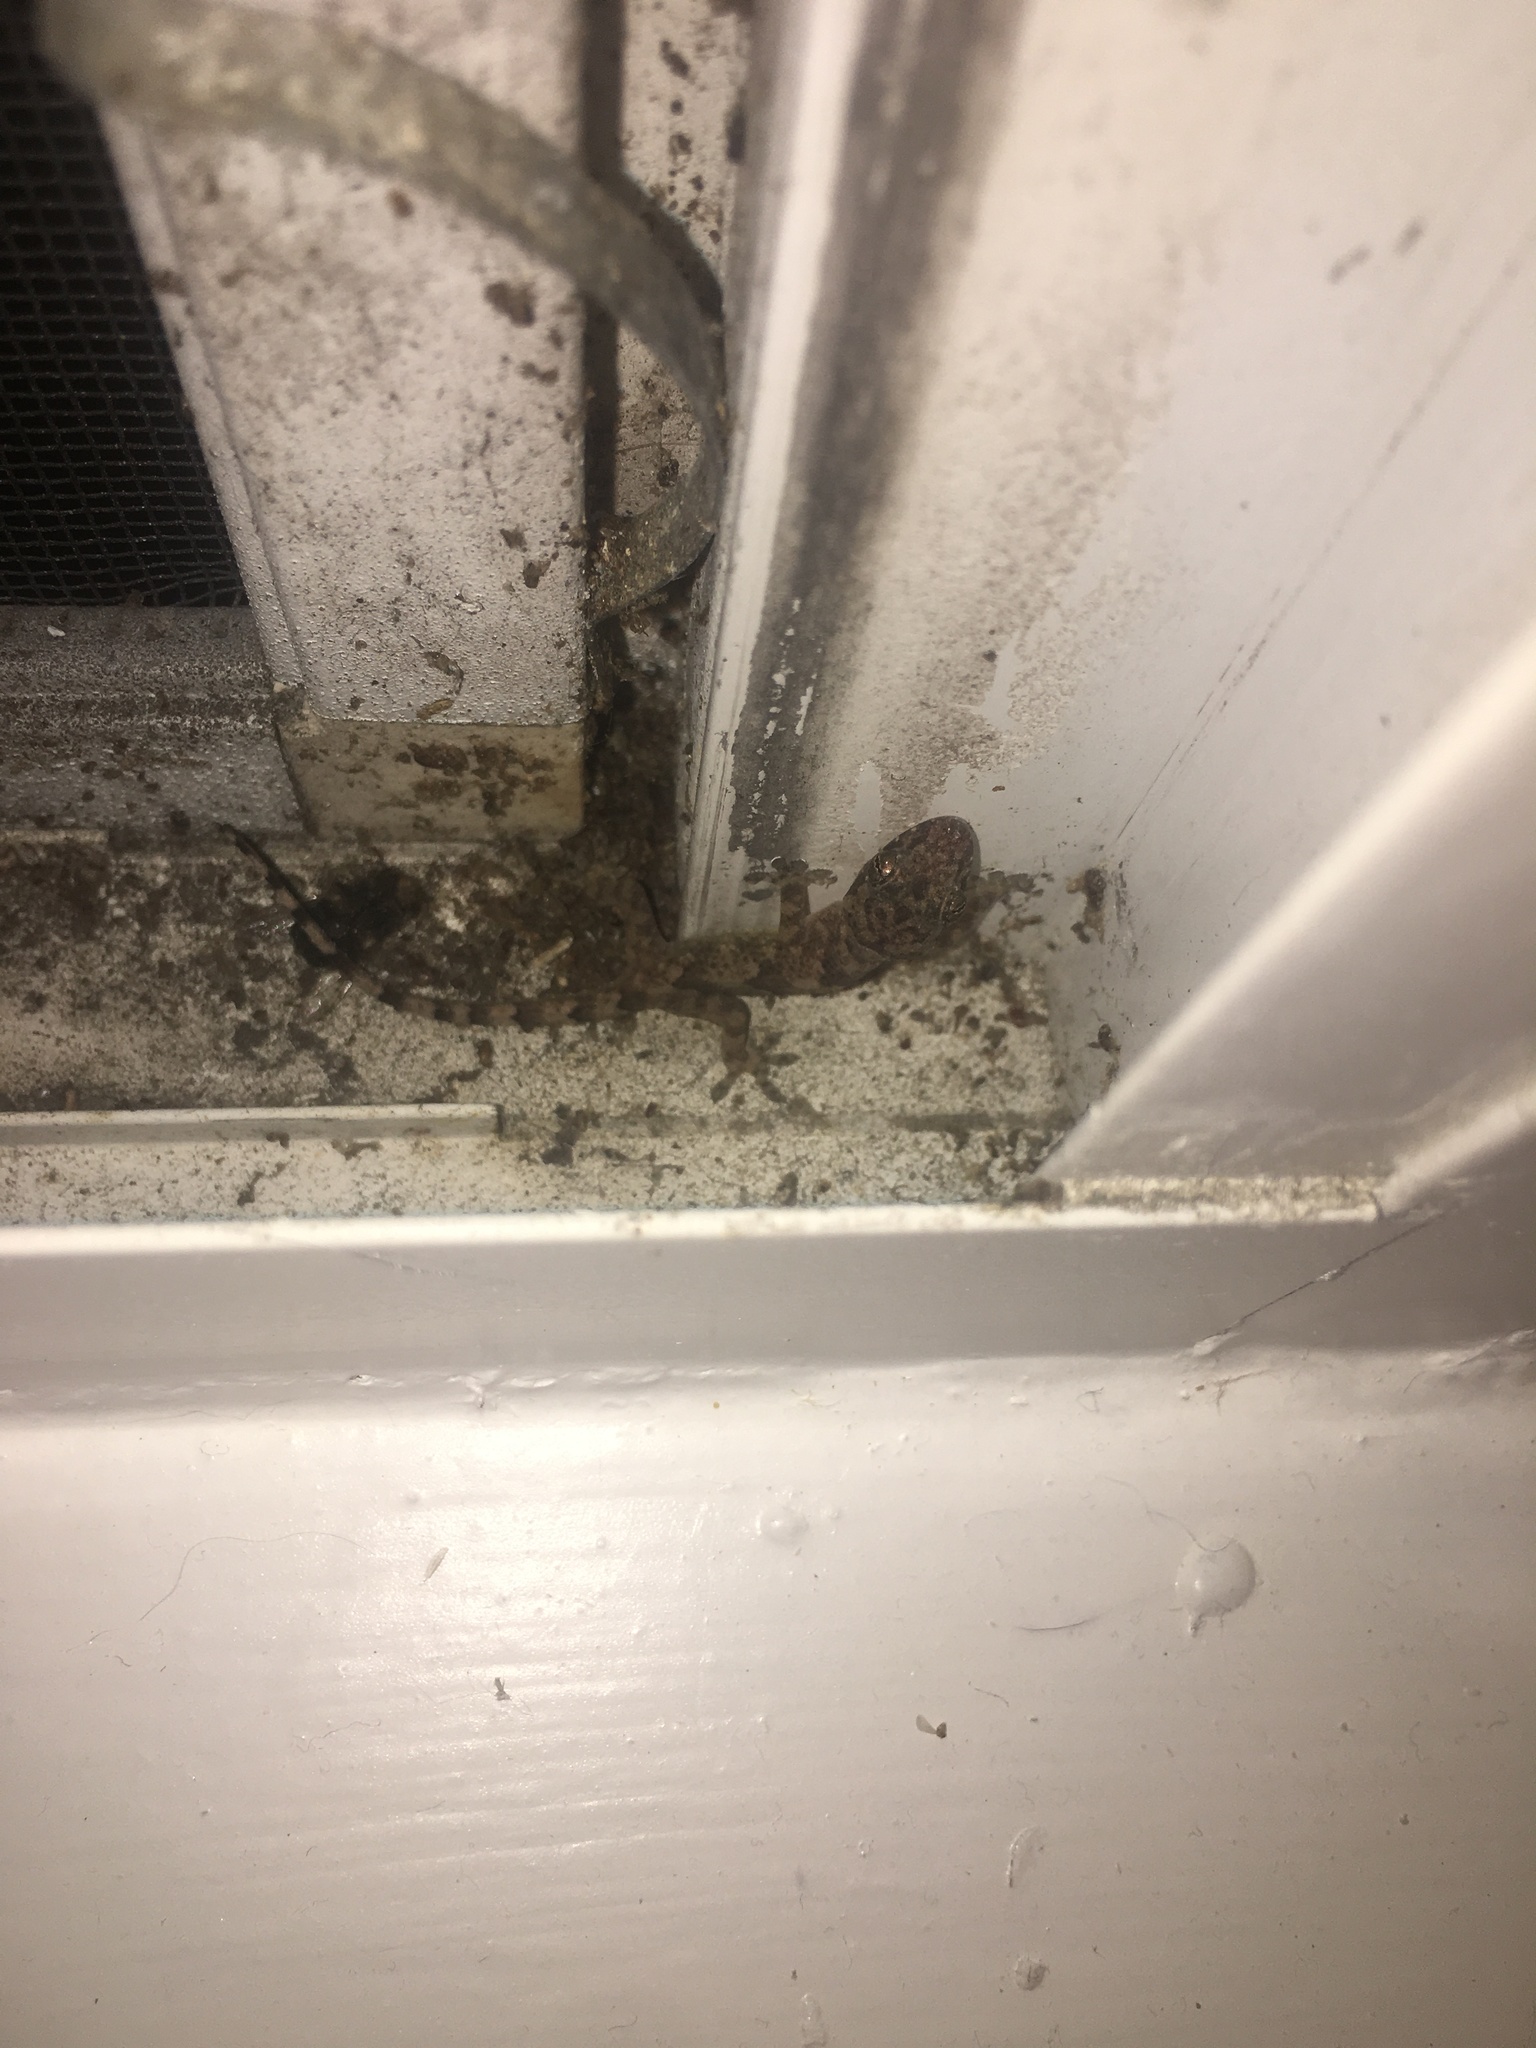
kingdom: Animalia
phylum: Chordata
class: Squamata
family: Gekkonidae
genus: Hemidactylus
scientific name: Hemidactylus mabouia
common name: House gecko
